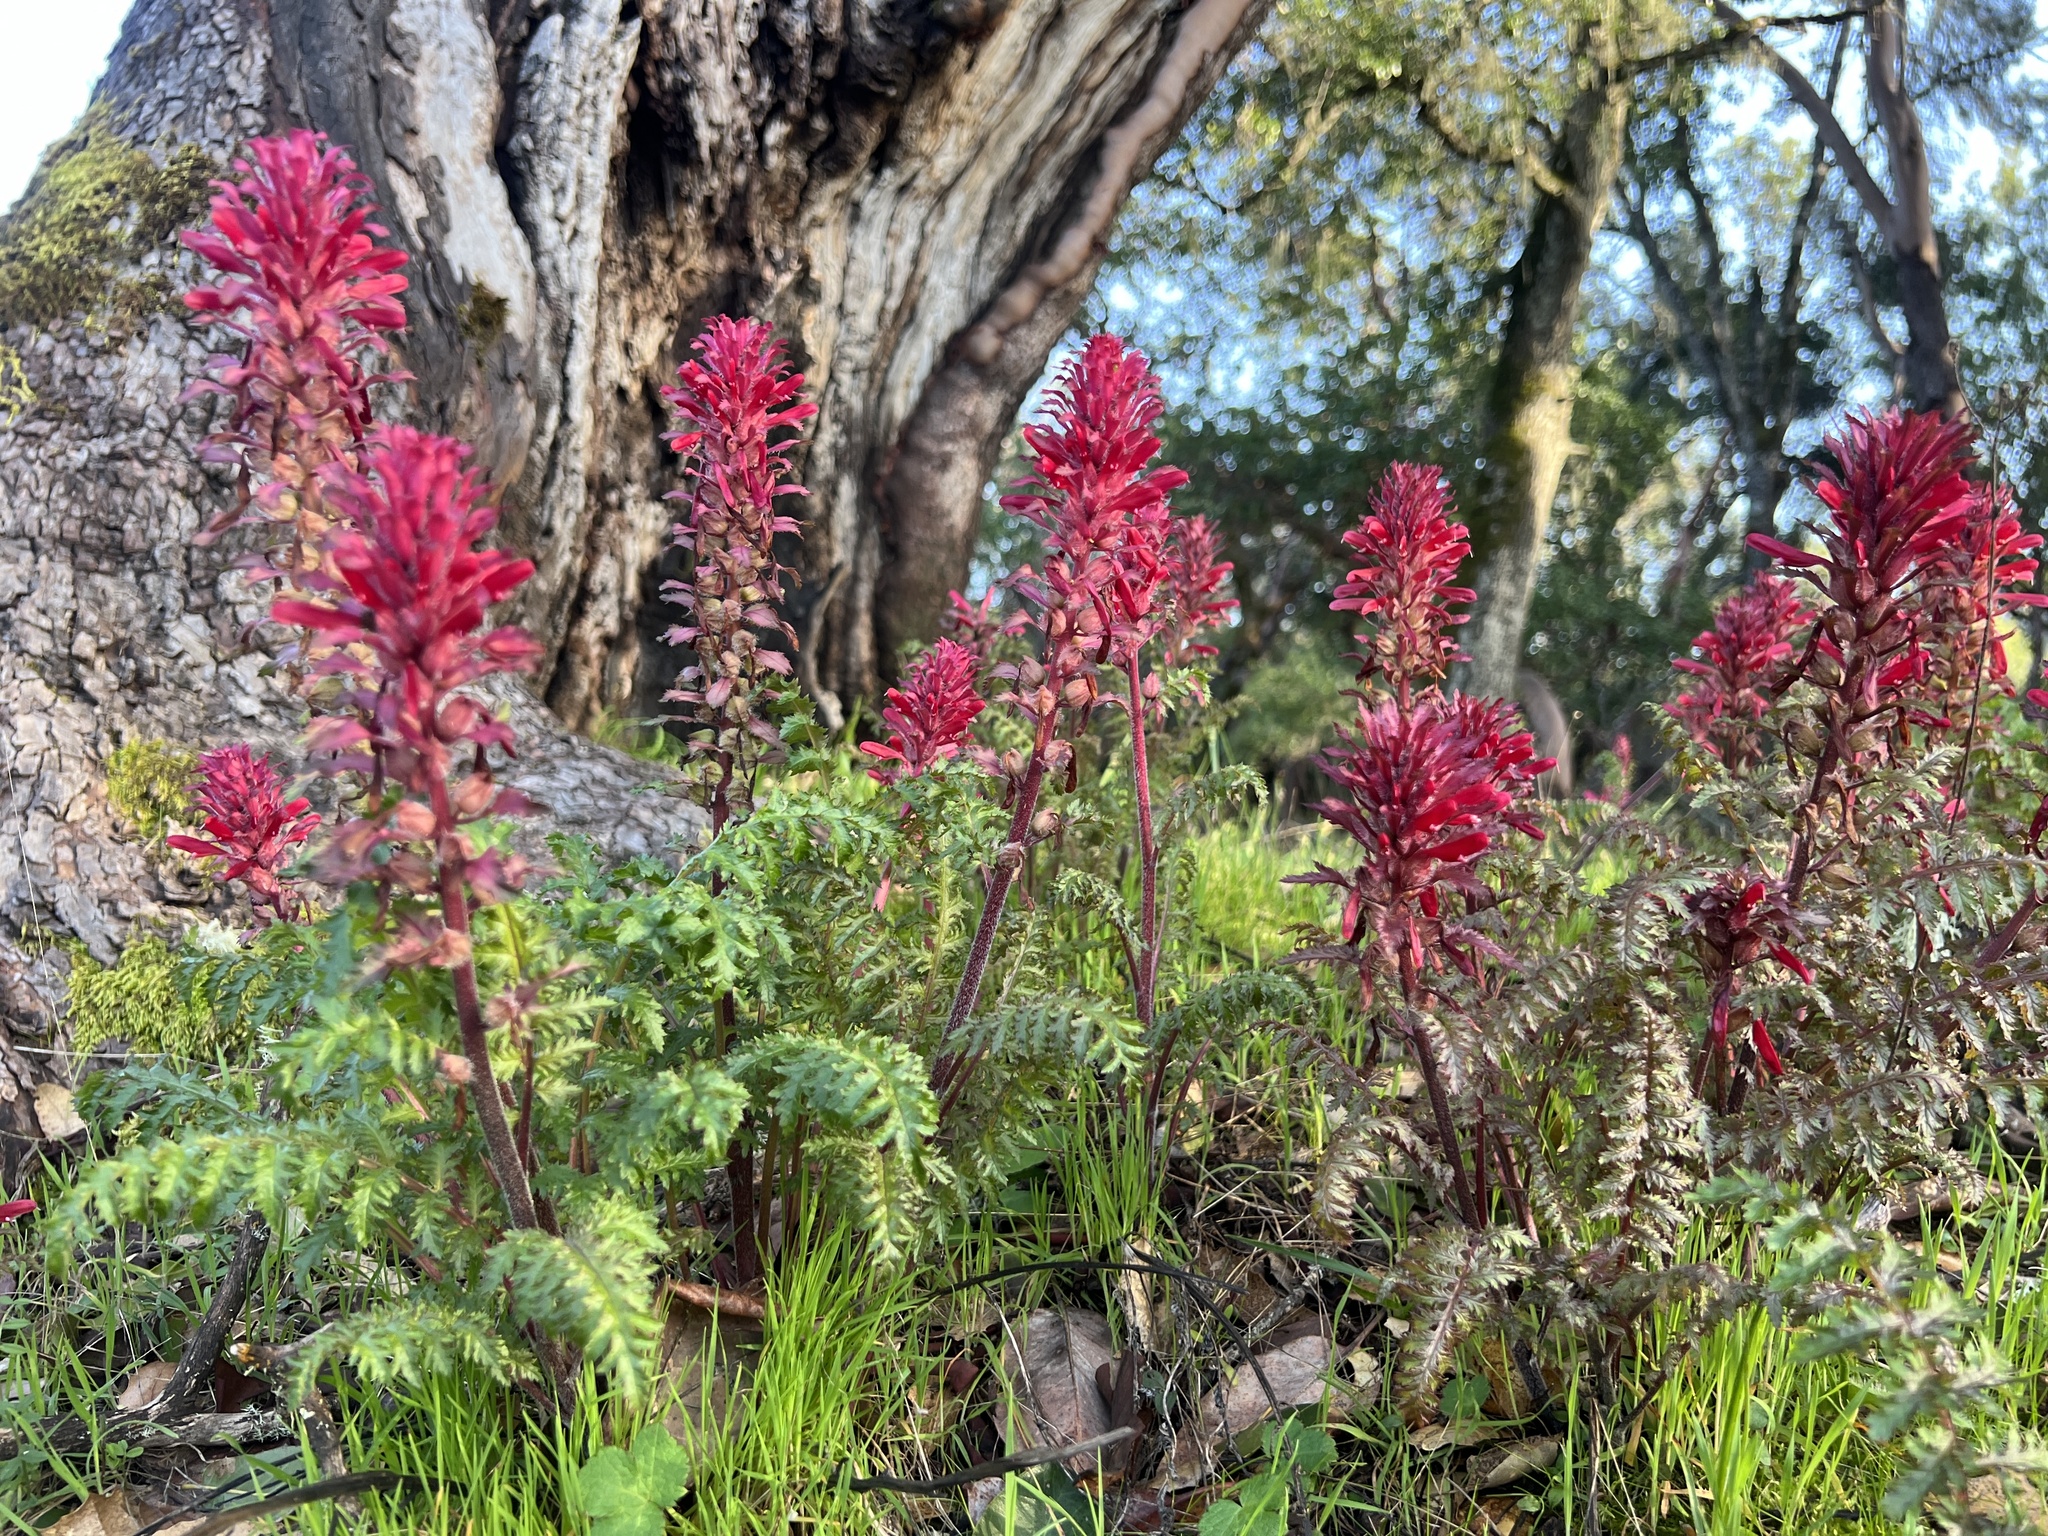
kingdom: Plantae
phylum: Tracheophyta
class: Magnoliopsida
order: Lamiales
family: Orobanchaceae
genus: Pedicularis
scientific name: Pedicularis densiflora
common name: Indian warrior
